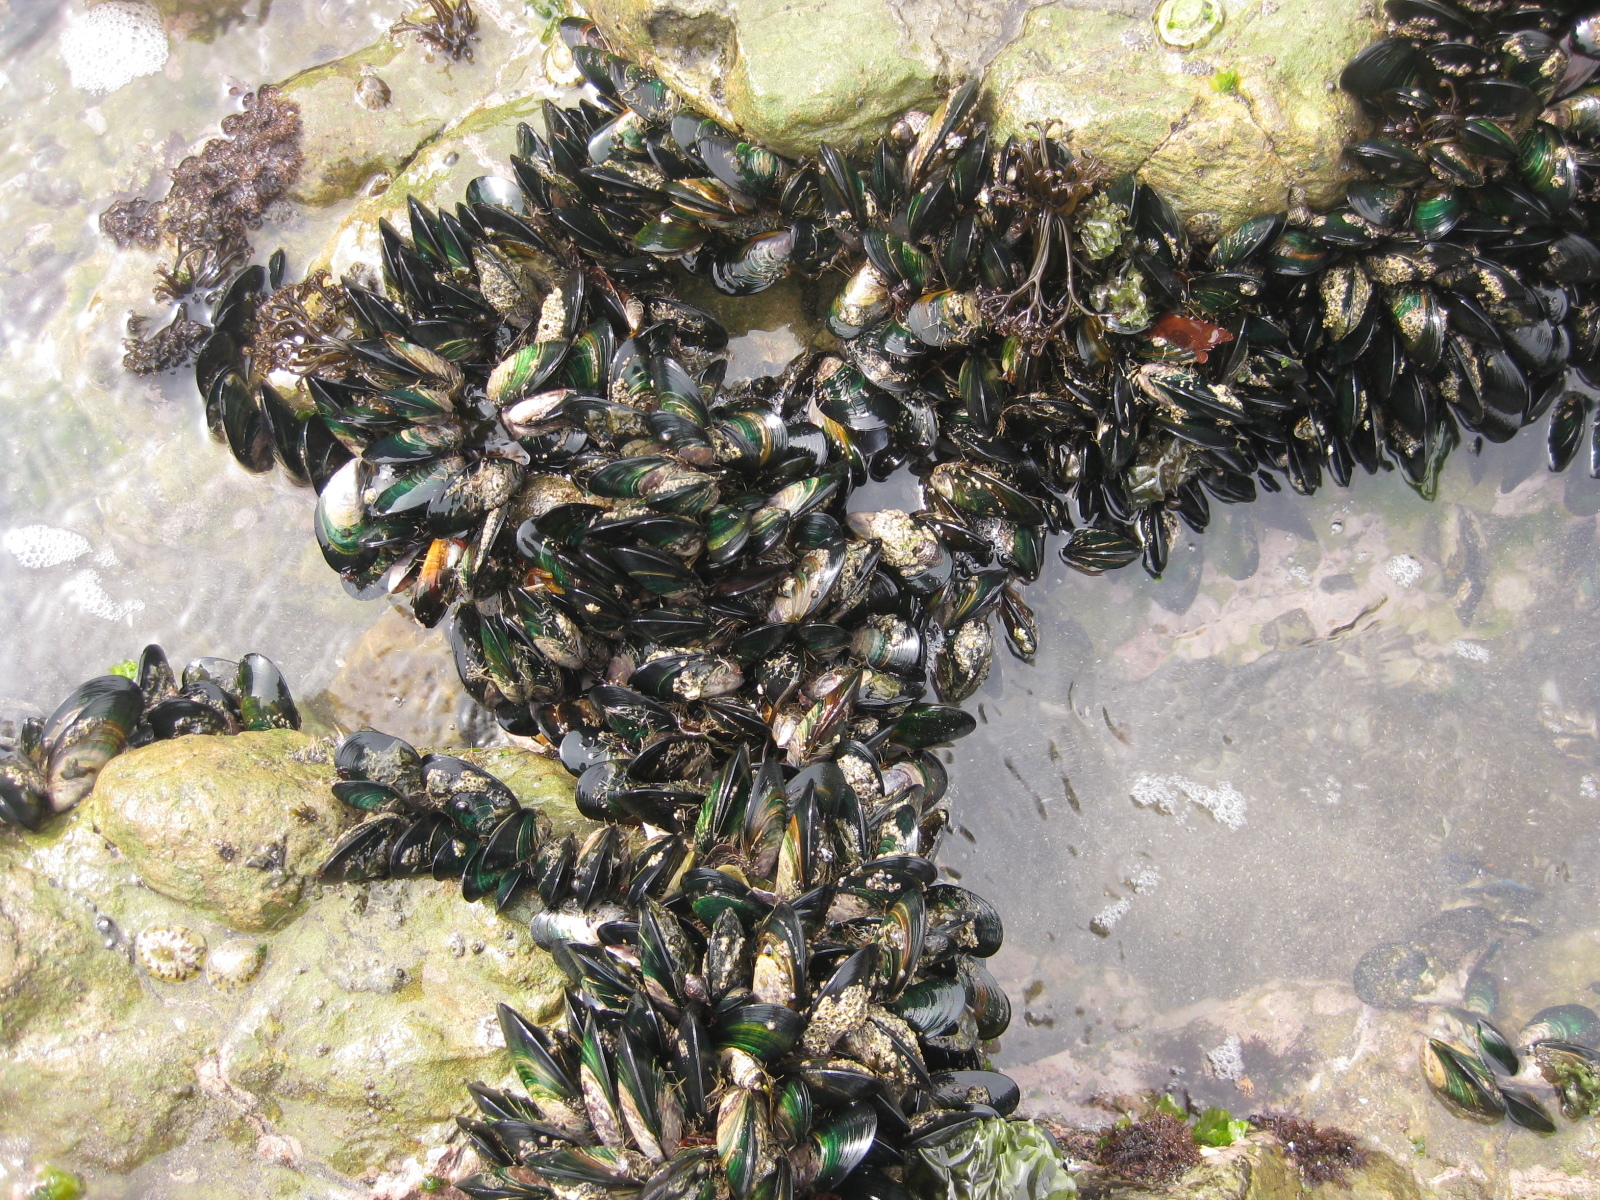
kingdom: Animalia
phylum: Mollusca
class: Bivalvia
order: Mytilida
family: Mytilidae
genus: Perna
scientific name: Perna canaliculus
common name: New zealand greenshelltm
